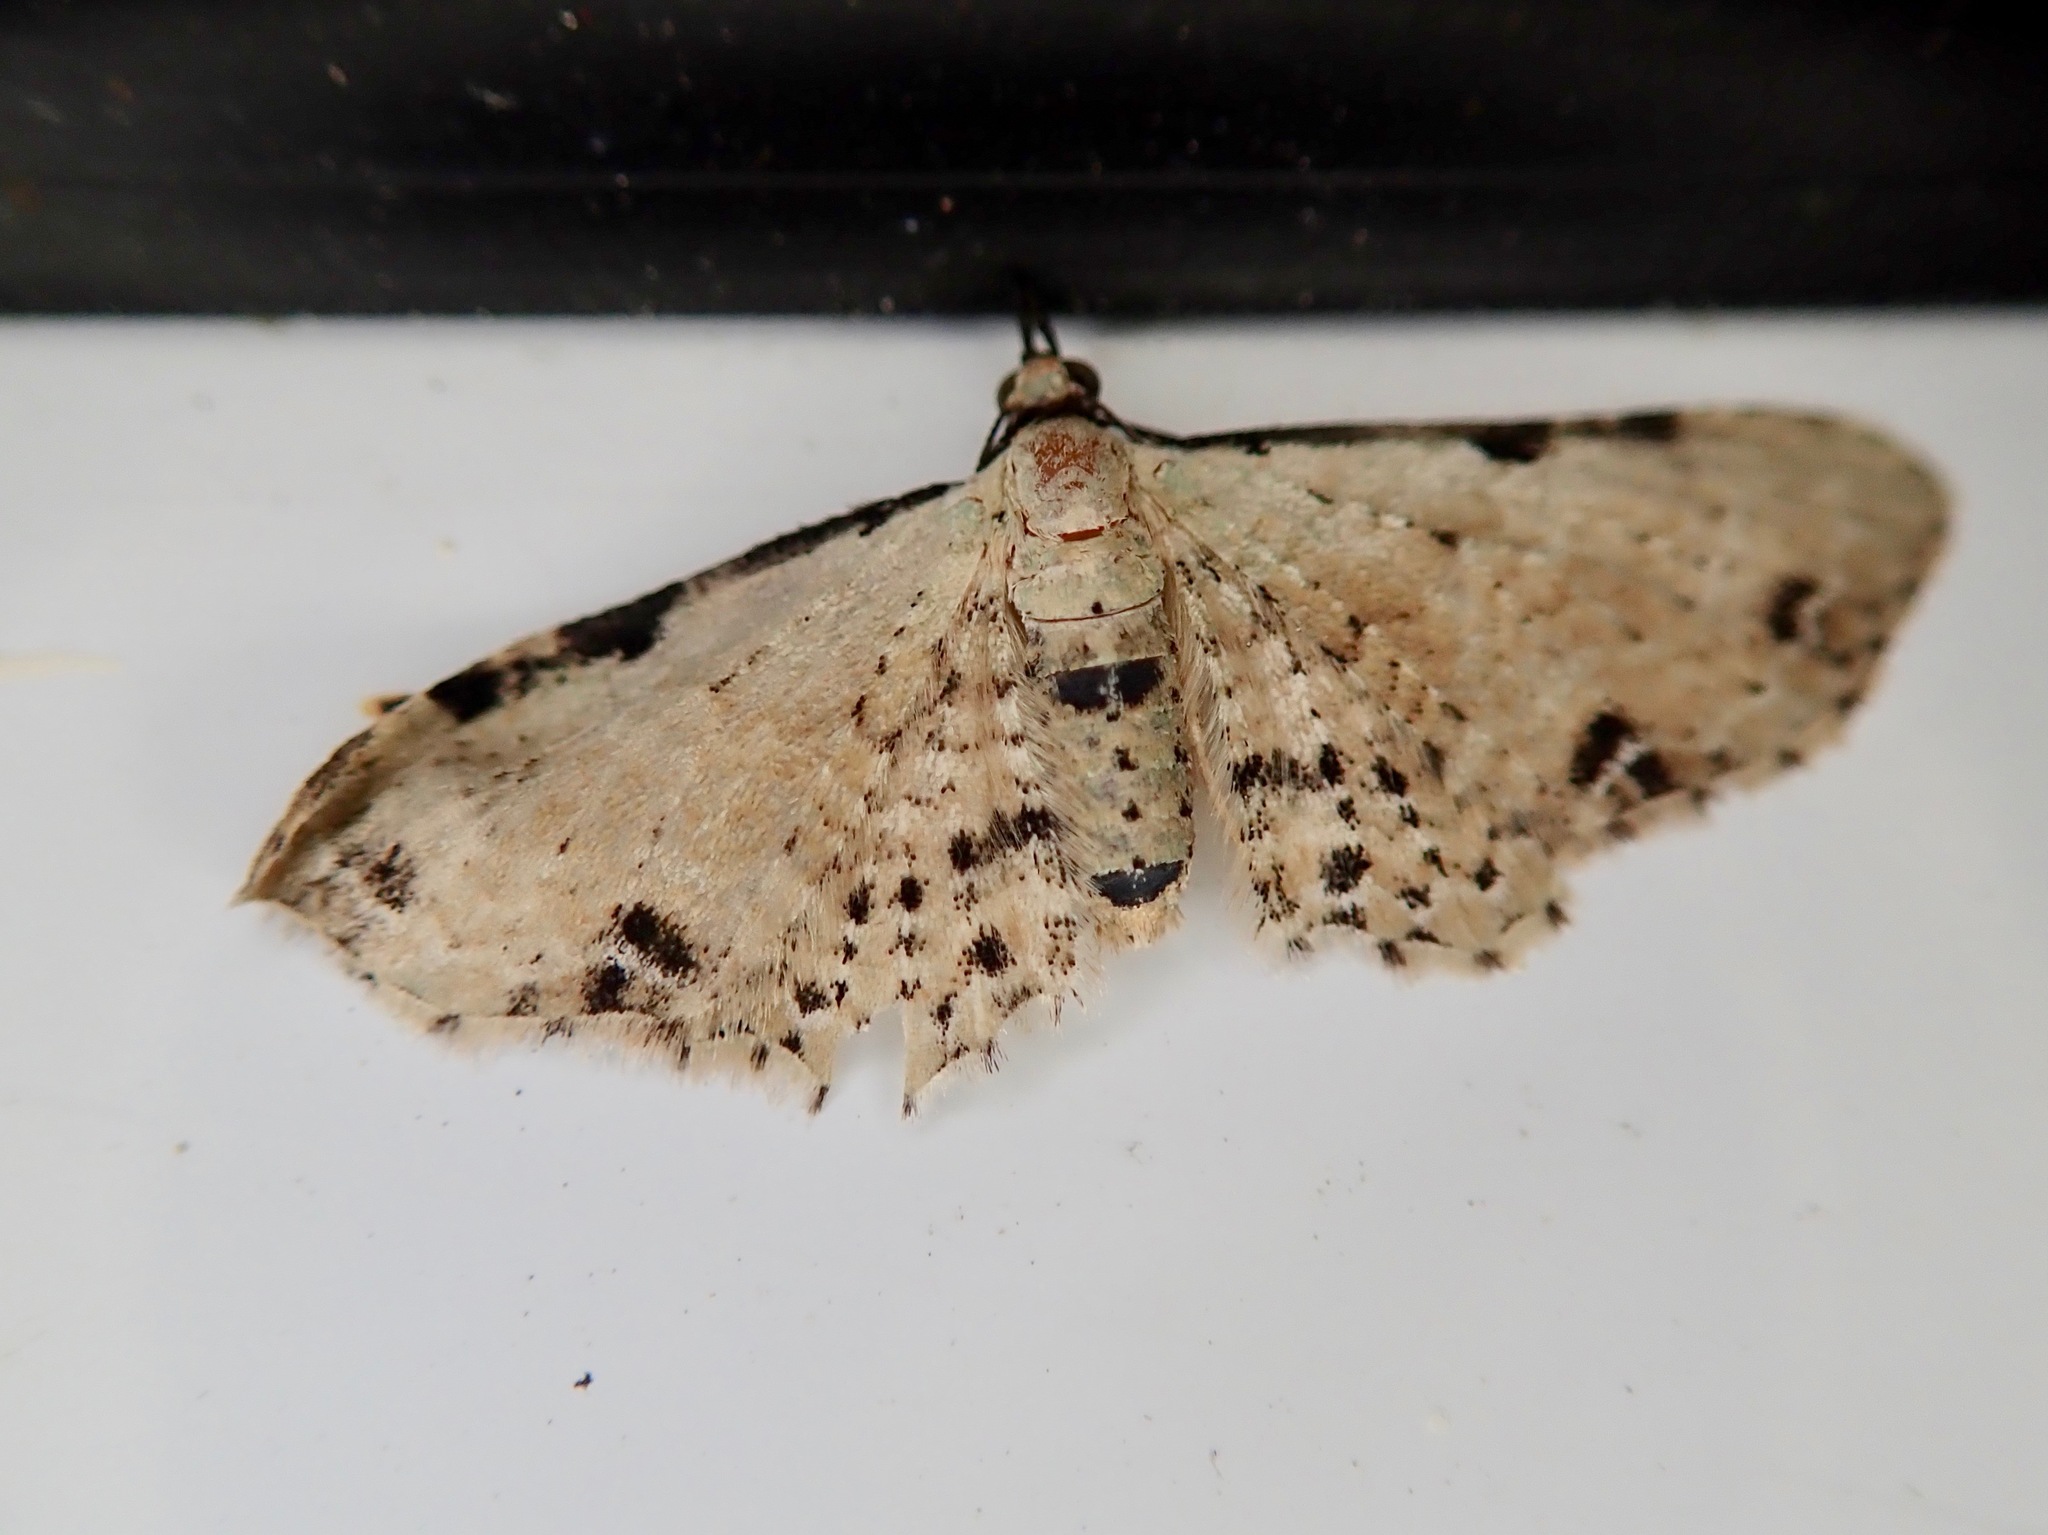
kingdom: Animalia
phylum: Arthropoda
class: Insecta
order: Lepidoptera
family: Geometridae
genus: Pasiphila
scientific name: Pasiphila fumipalpata
